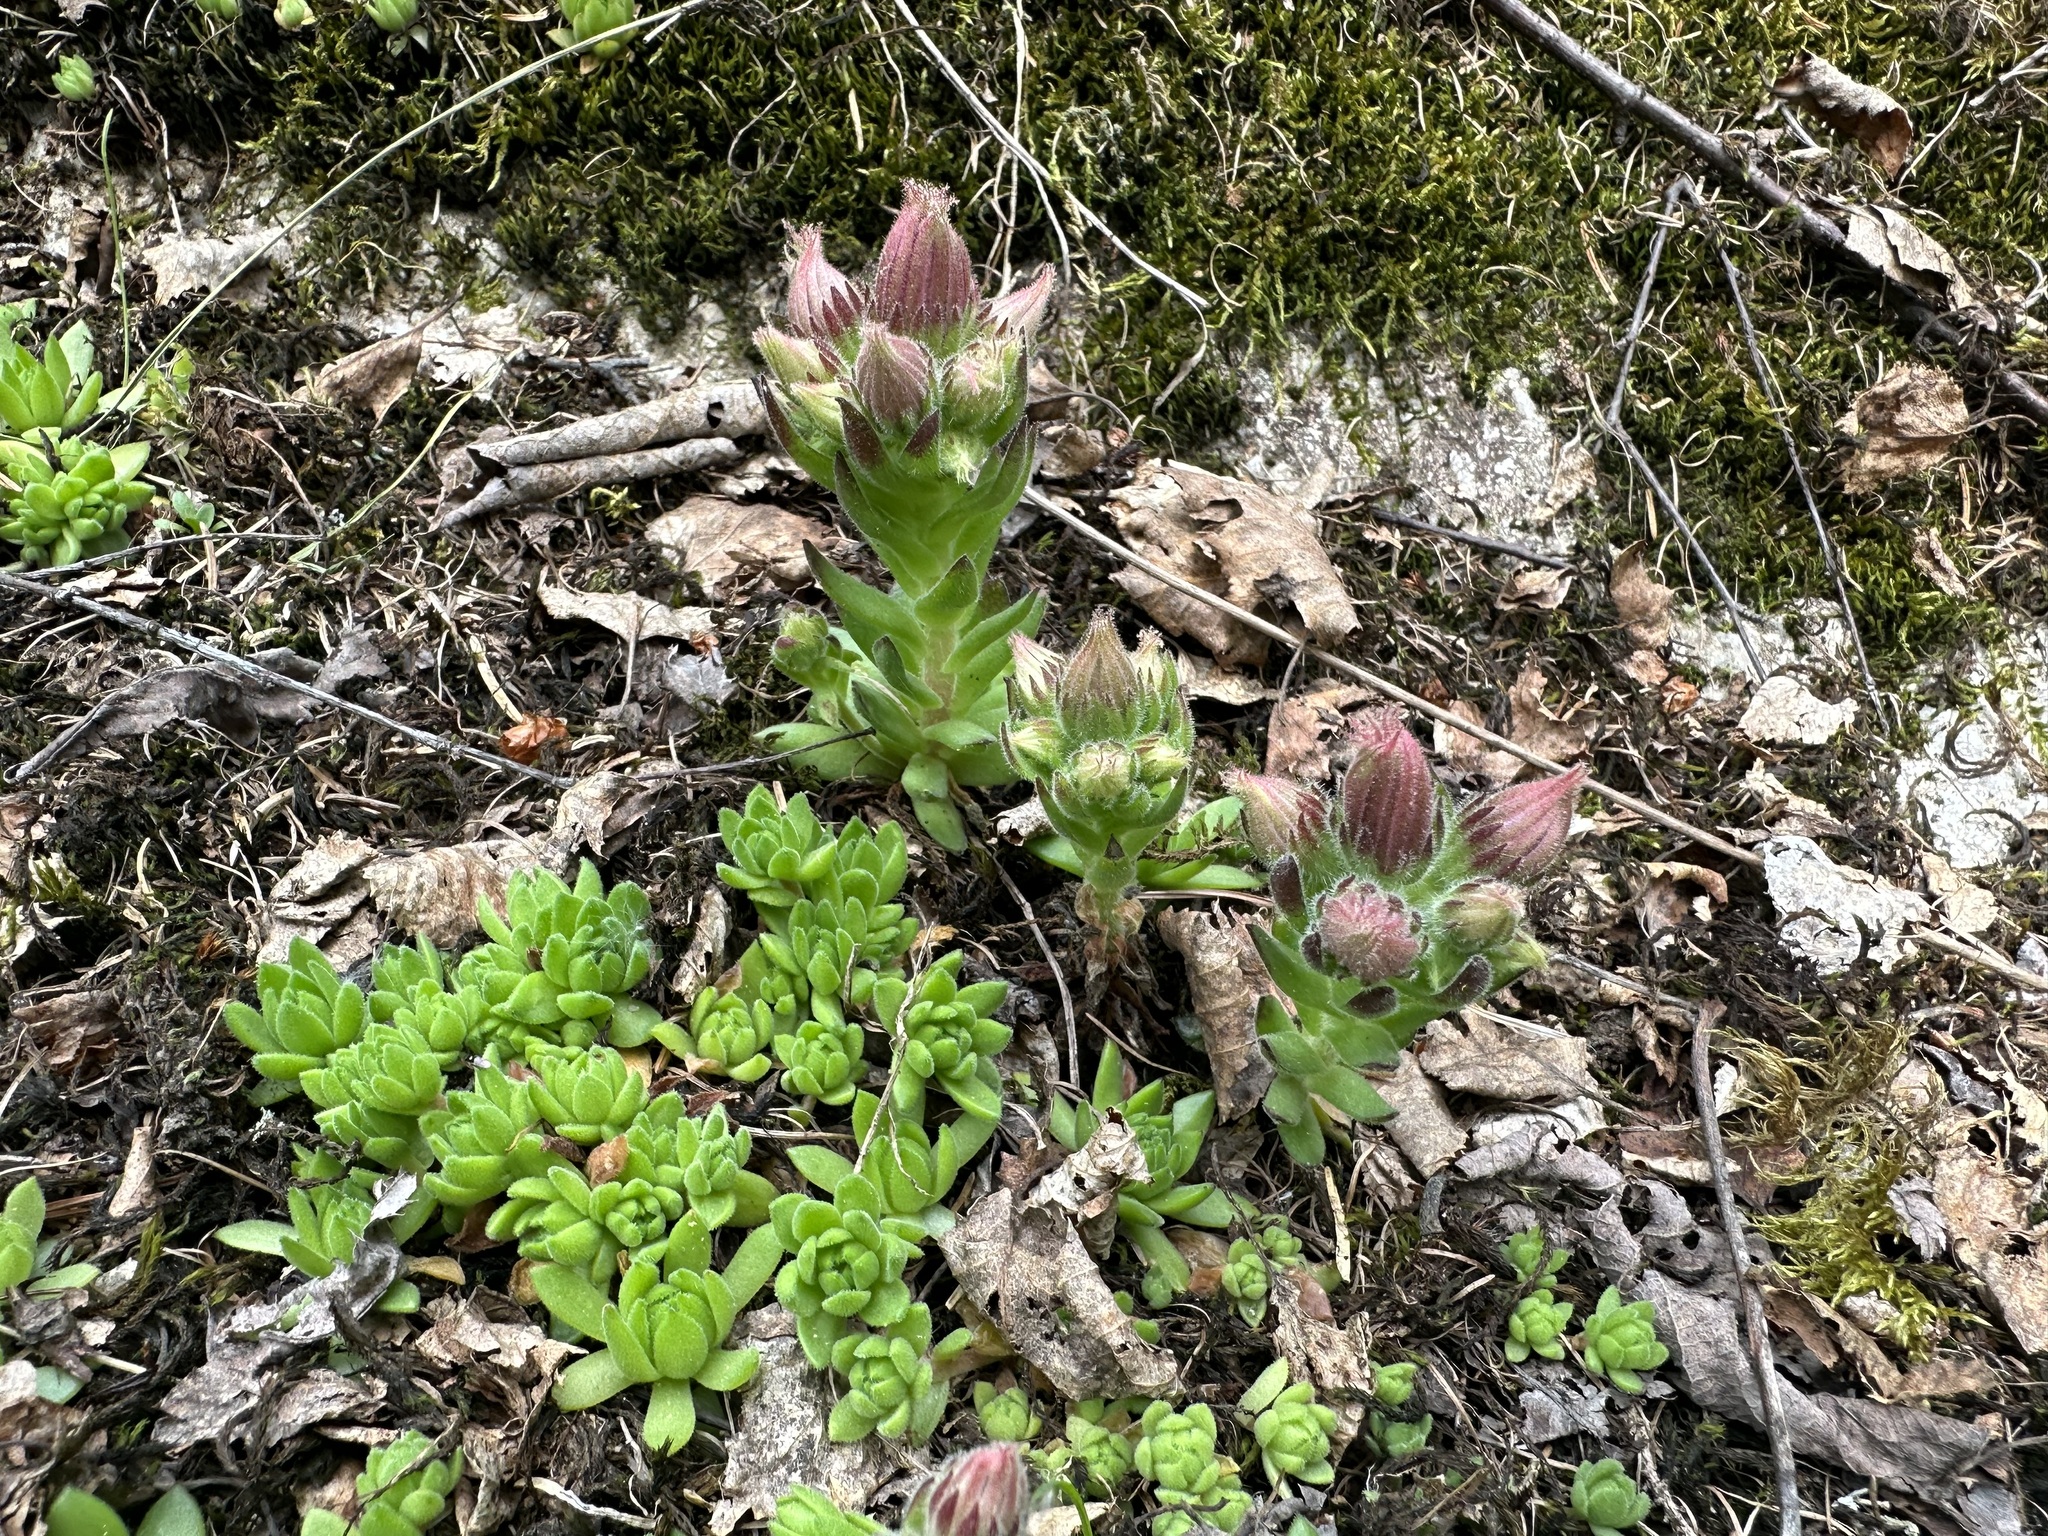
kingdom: Plantae
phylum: Tracheophyta
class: Magnoliopsida
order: Saxifragales
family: Crassulaceae
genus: Sempervivum
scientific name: Sempervivum montanum
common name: Mountain house-leek
